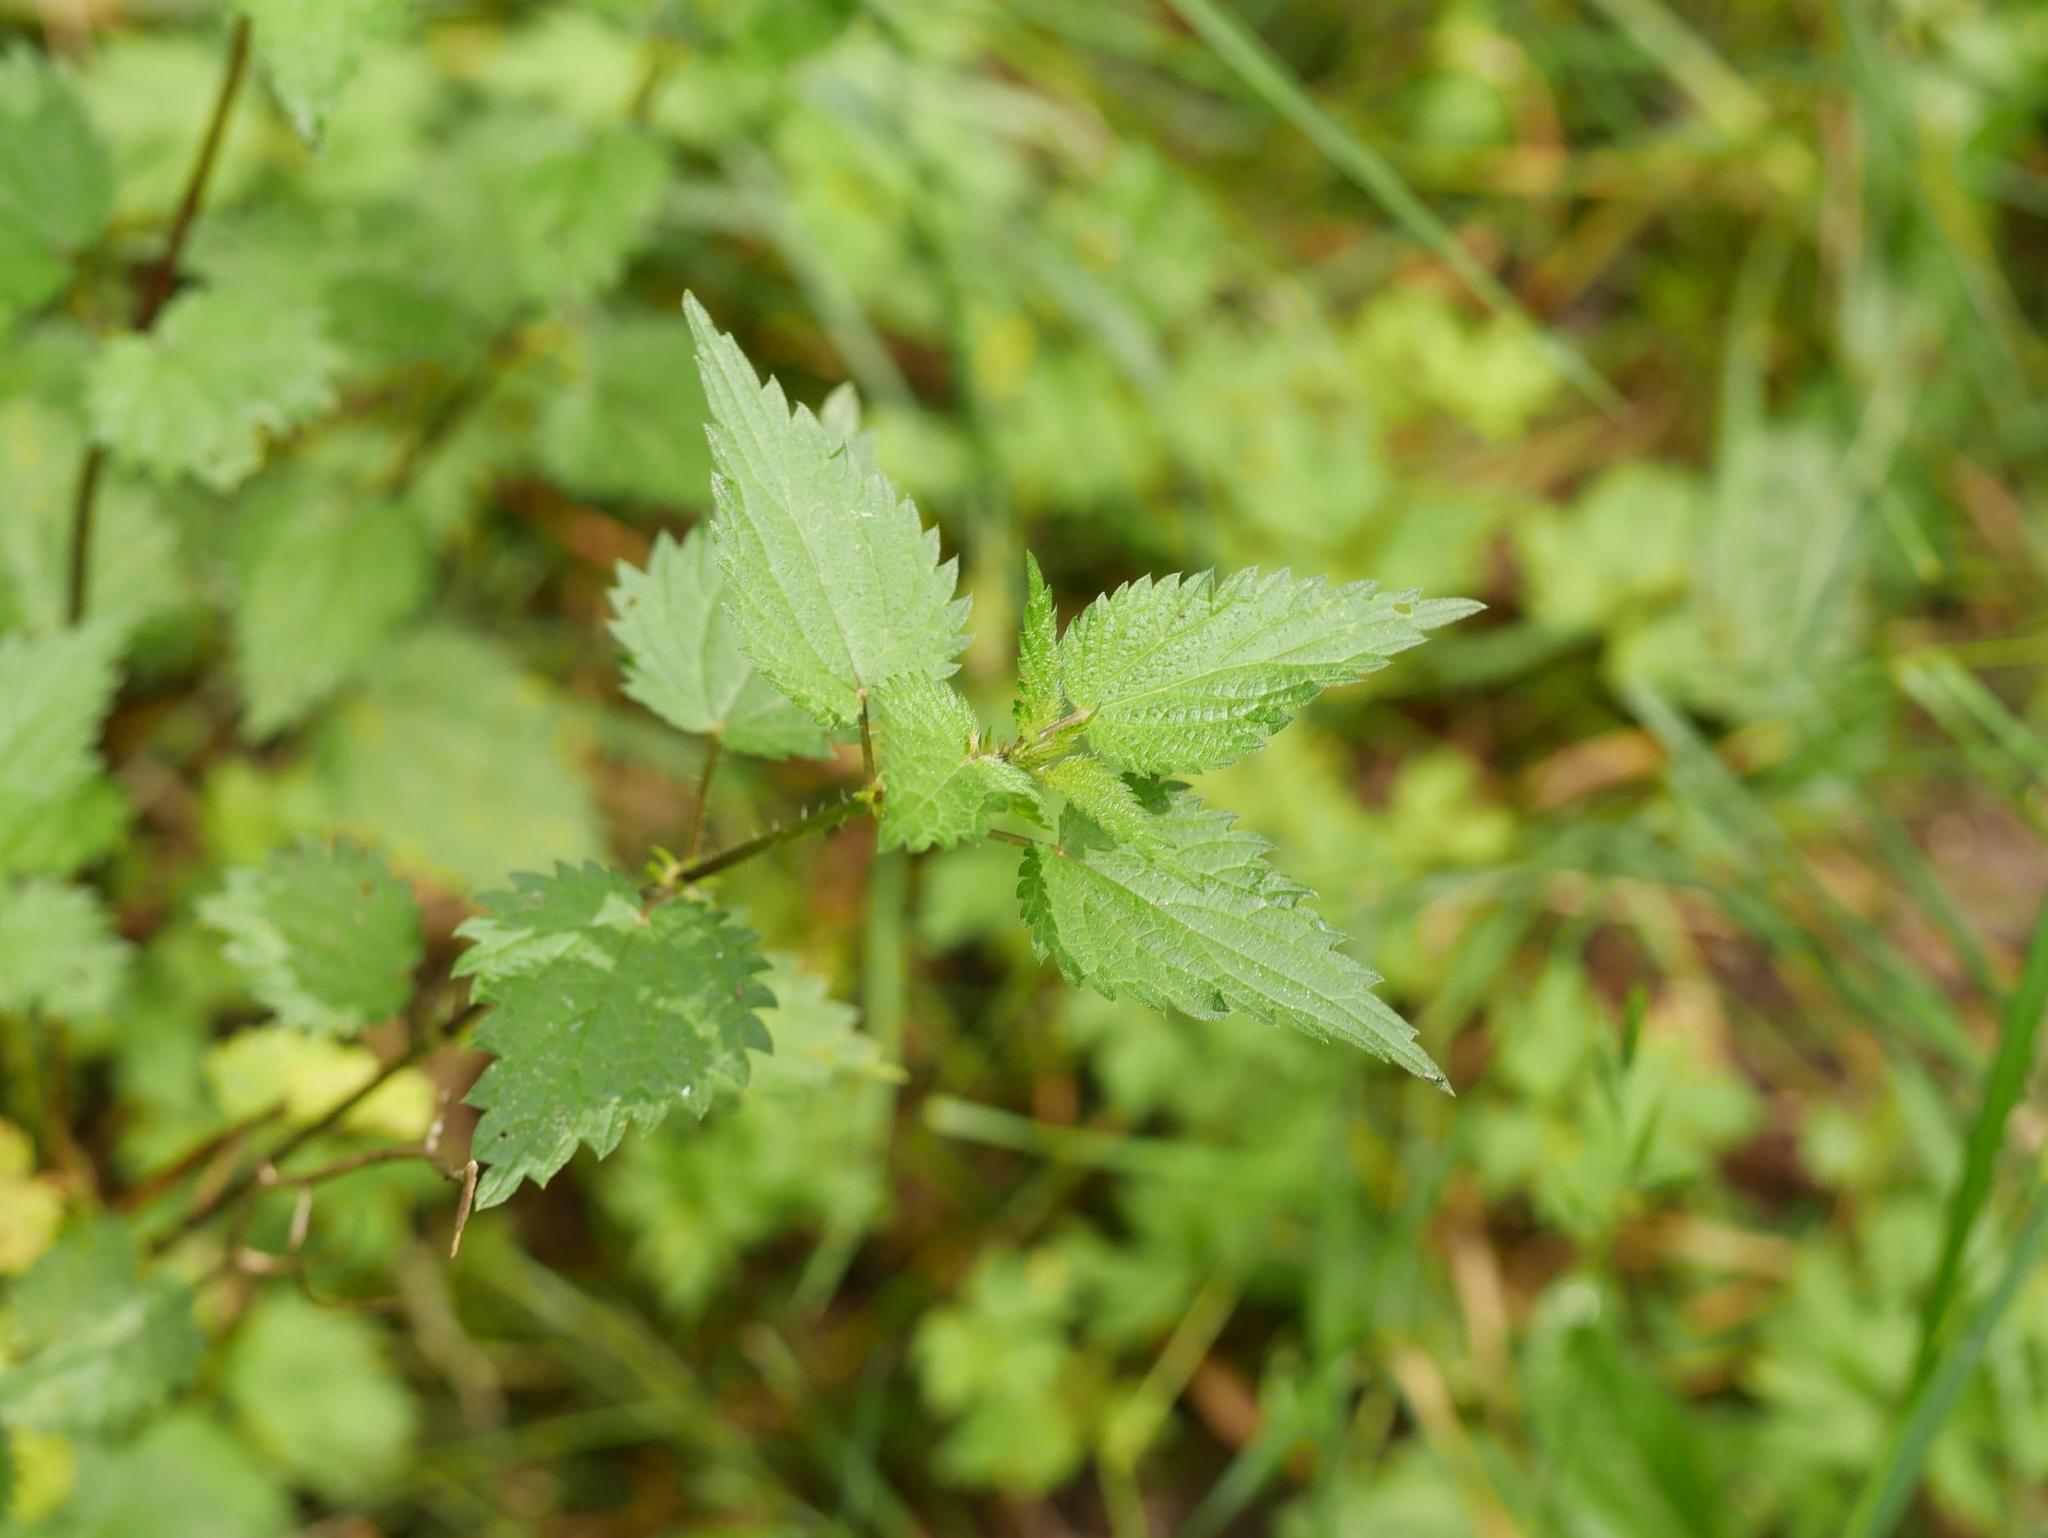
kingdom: Plantae
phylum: Tracheophyta
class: Magnoliopsida
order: Rosales
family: Urticaceae
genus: Urtica
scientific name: Urtica dioica
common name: Common nettle
